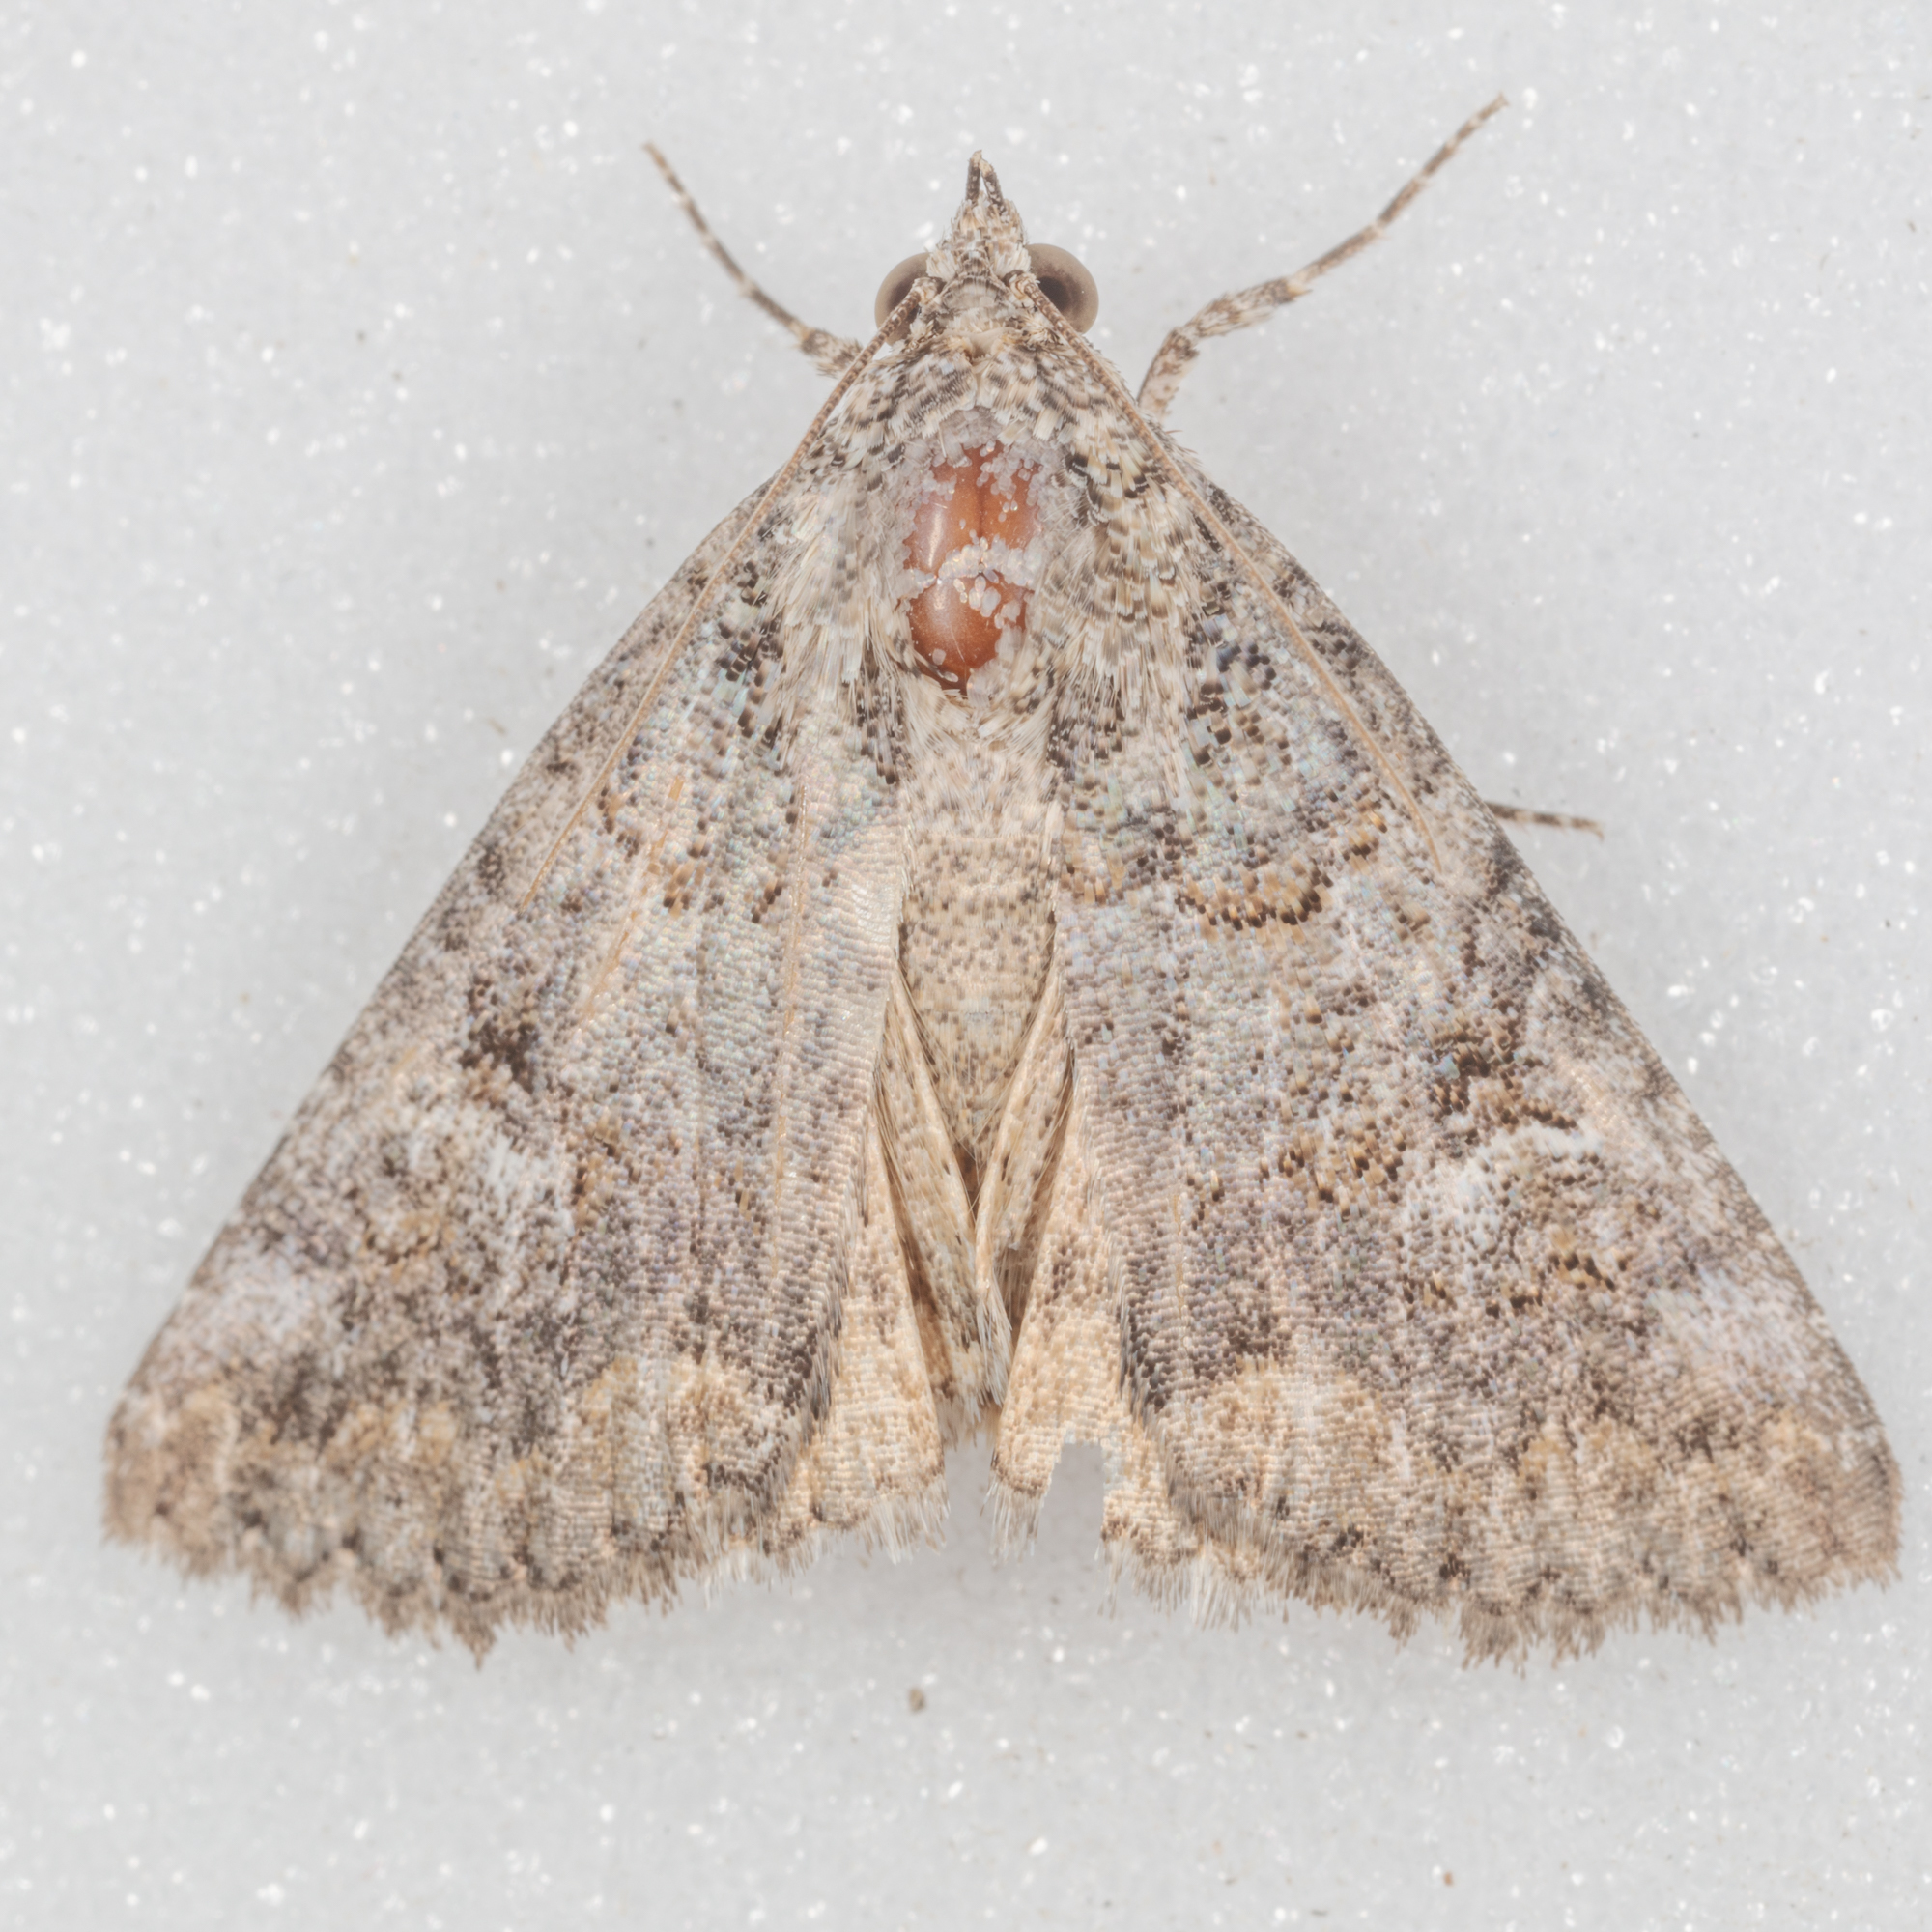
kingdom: Animalia
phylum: Arthropoda
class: Insecta
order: Lepidoptera
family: Erebidae
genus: Eubolina
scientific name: Eubolina impartialis
